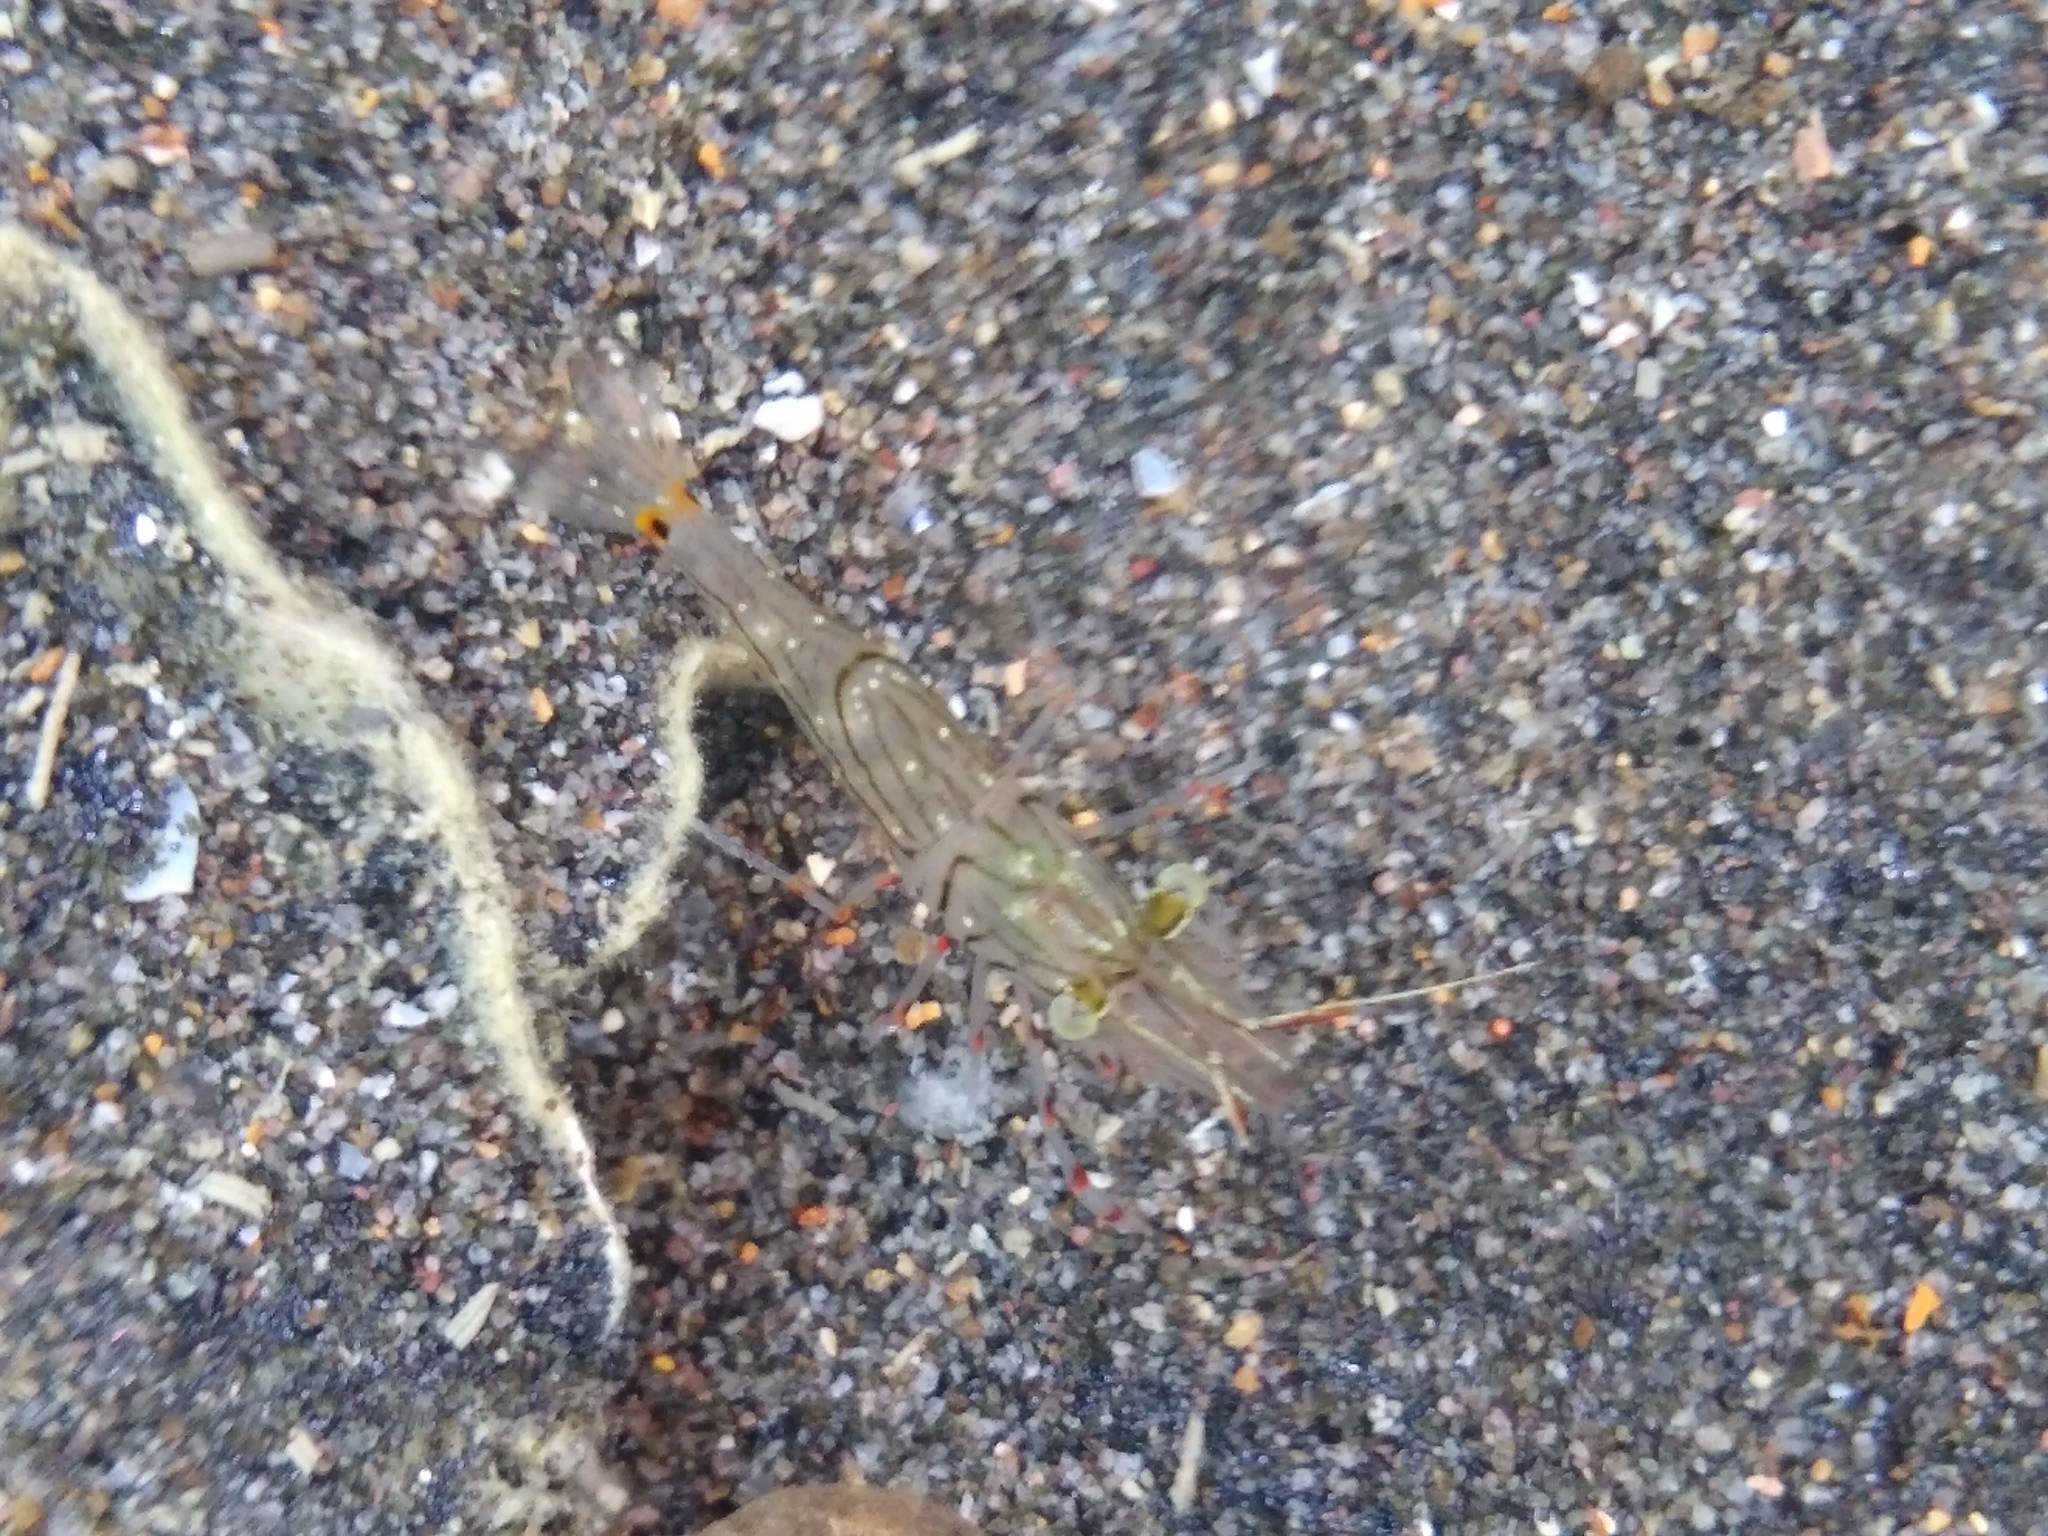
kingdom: Animalia
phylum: Arthropoda
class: Malacostraca
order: Decapoda
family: Palaemonidae
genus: Palaemon
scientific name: Palaemon affinis
